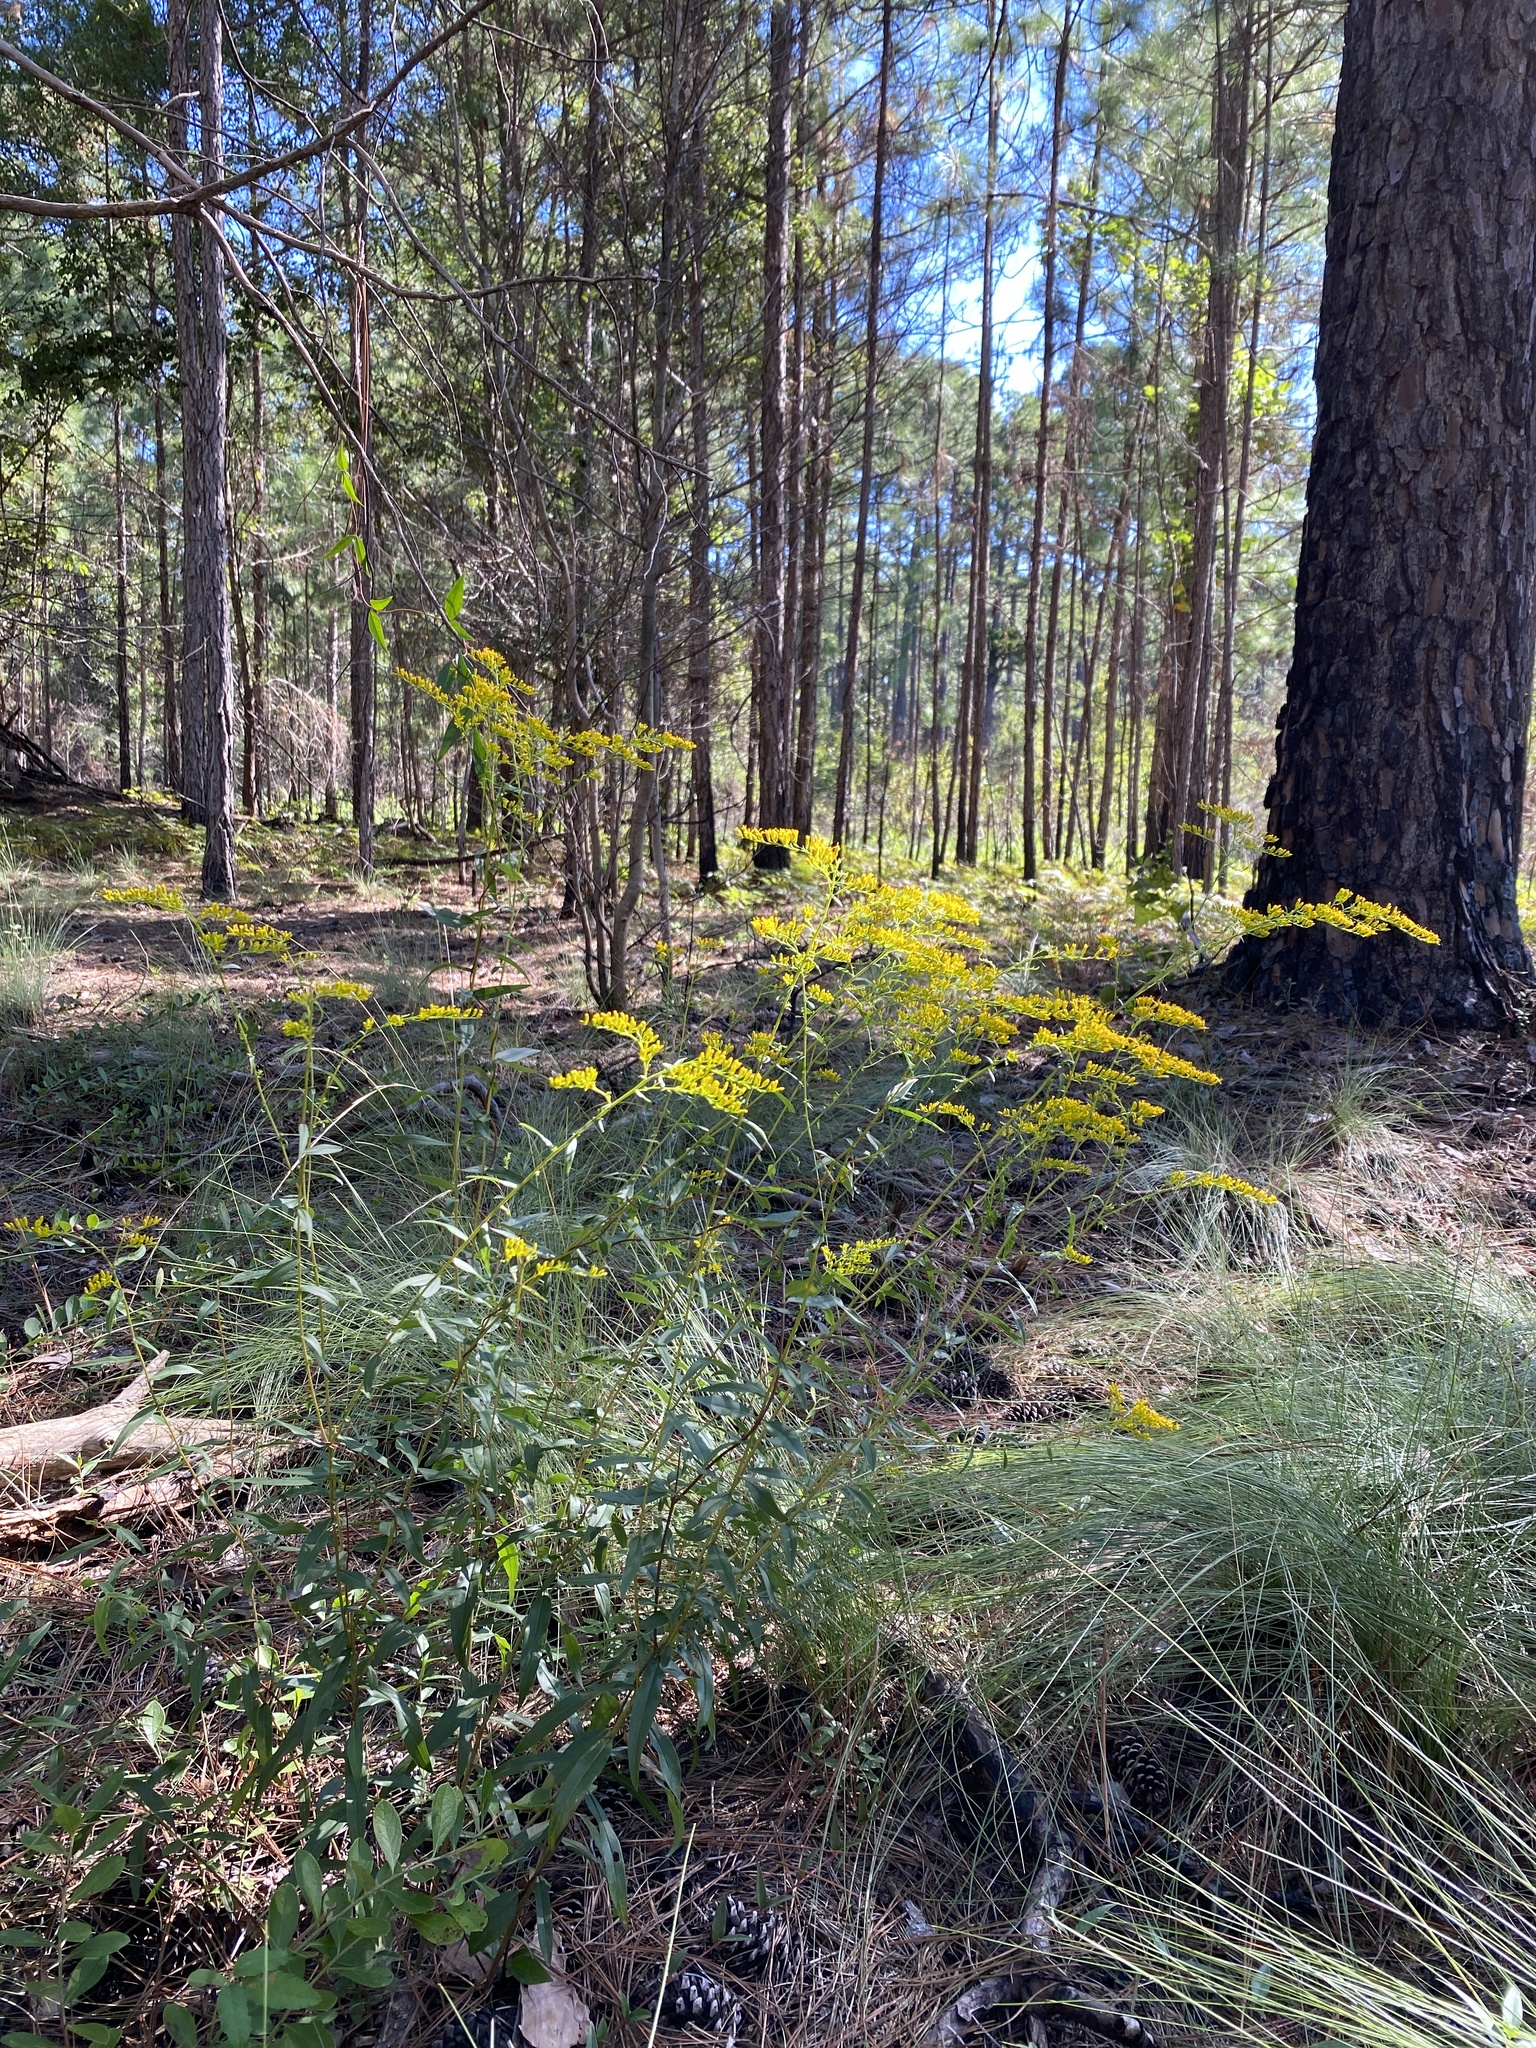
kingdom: Plantae
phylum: Tracheophyta
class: Magnoliopsida
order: Asterales
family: Asteraceae
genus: Solidago
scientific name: Solidago odora
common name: Anise-scented goldenrod
